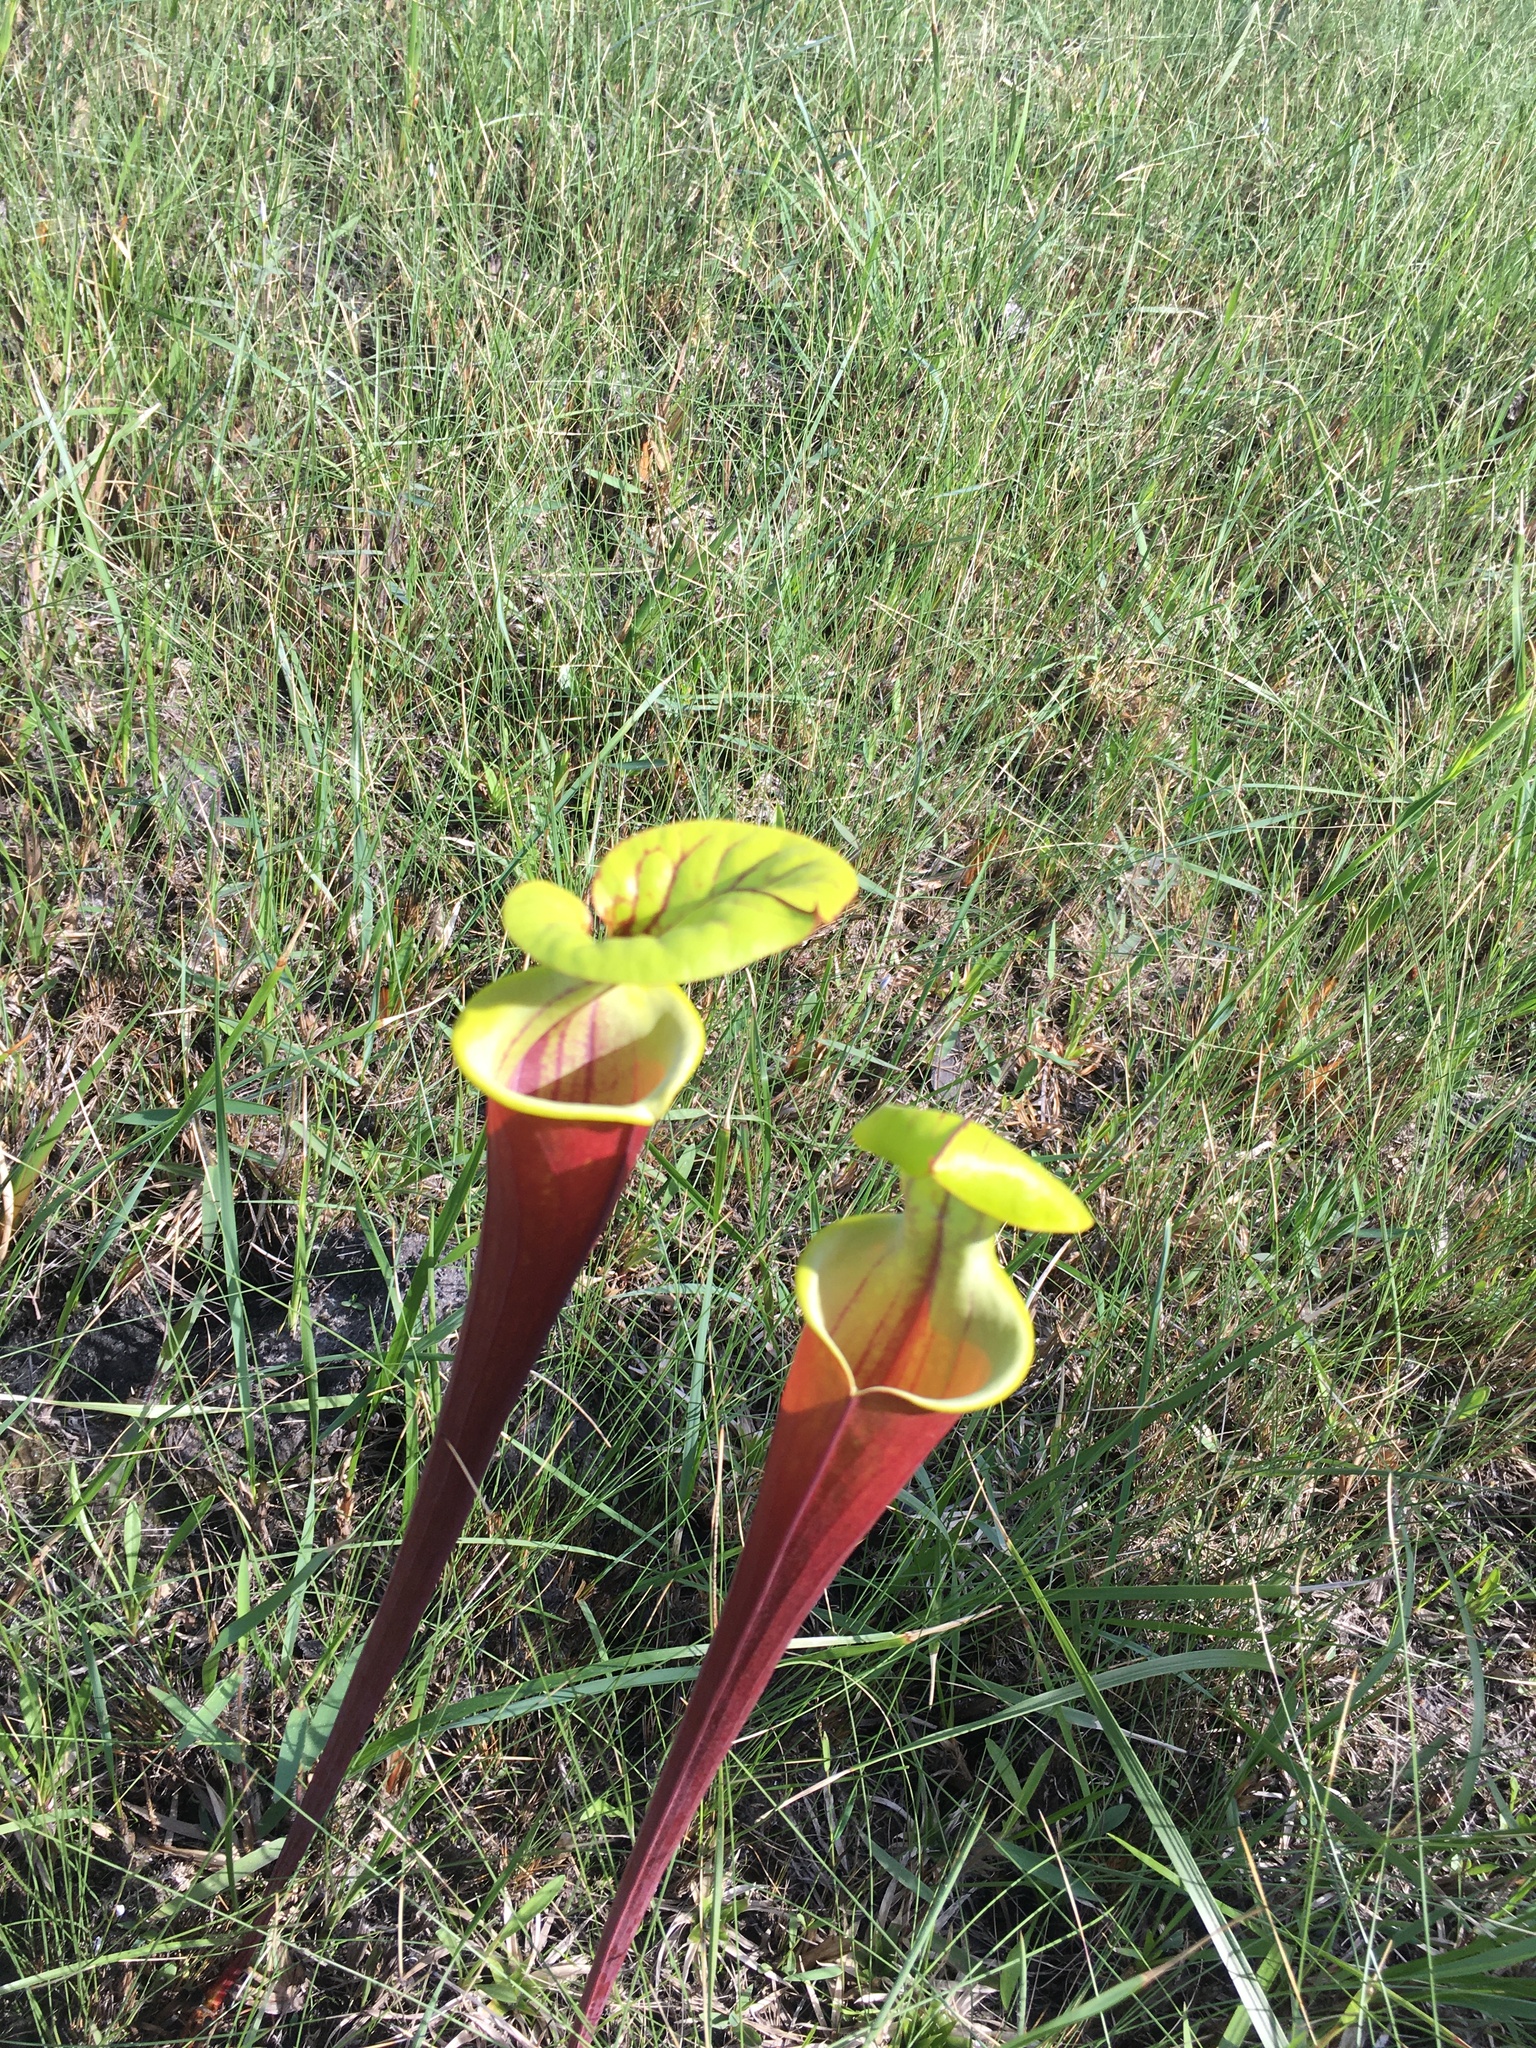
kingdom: Plantae
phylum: Tracheophyta
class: Magnoliopsida
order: Ericales
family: Sarraceniaceae
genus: Sarracenia
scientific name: Sarracenia flava
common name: Trumpets
